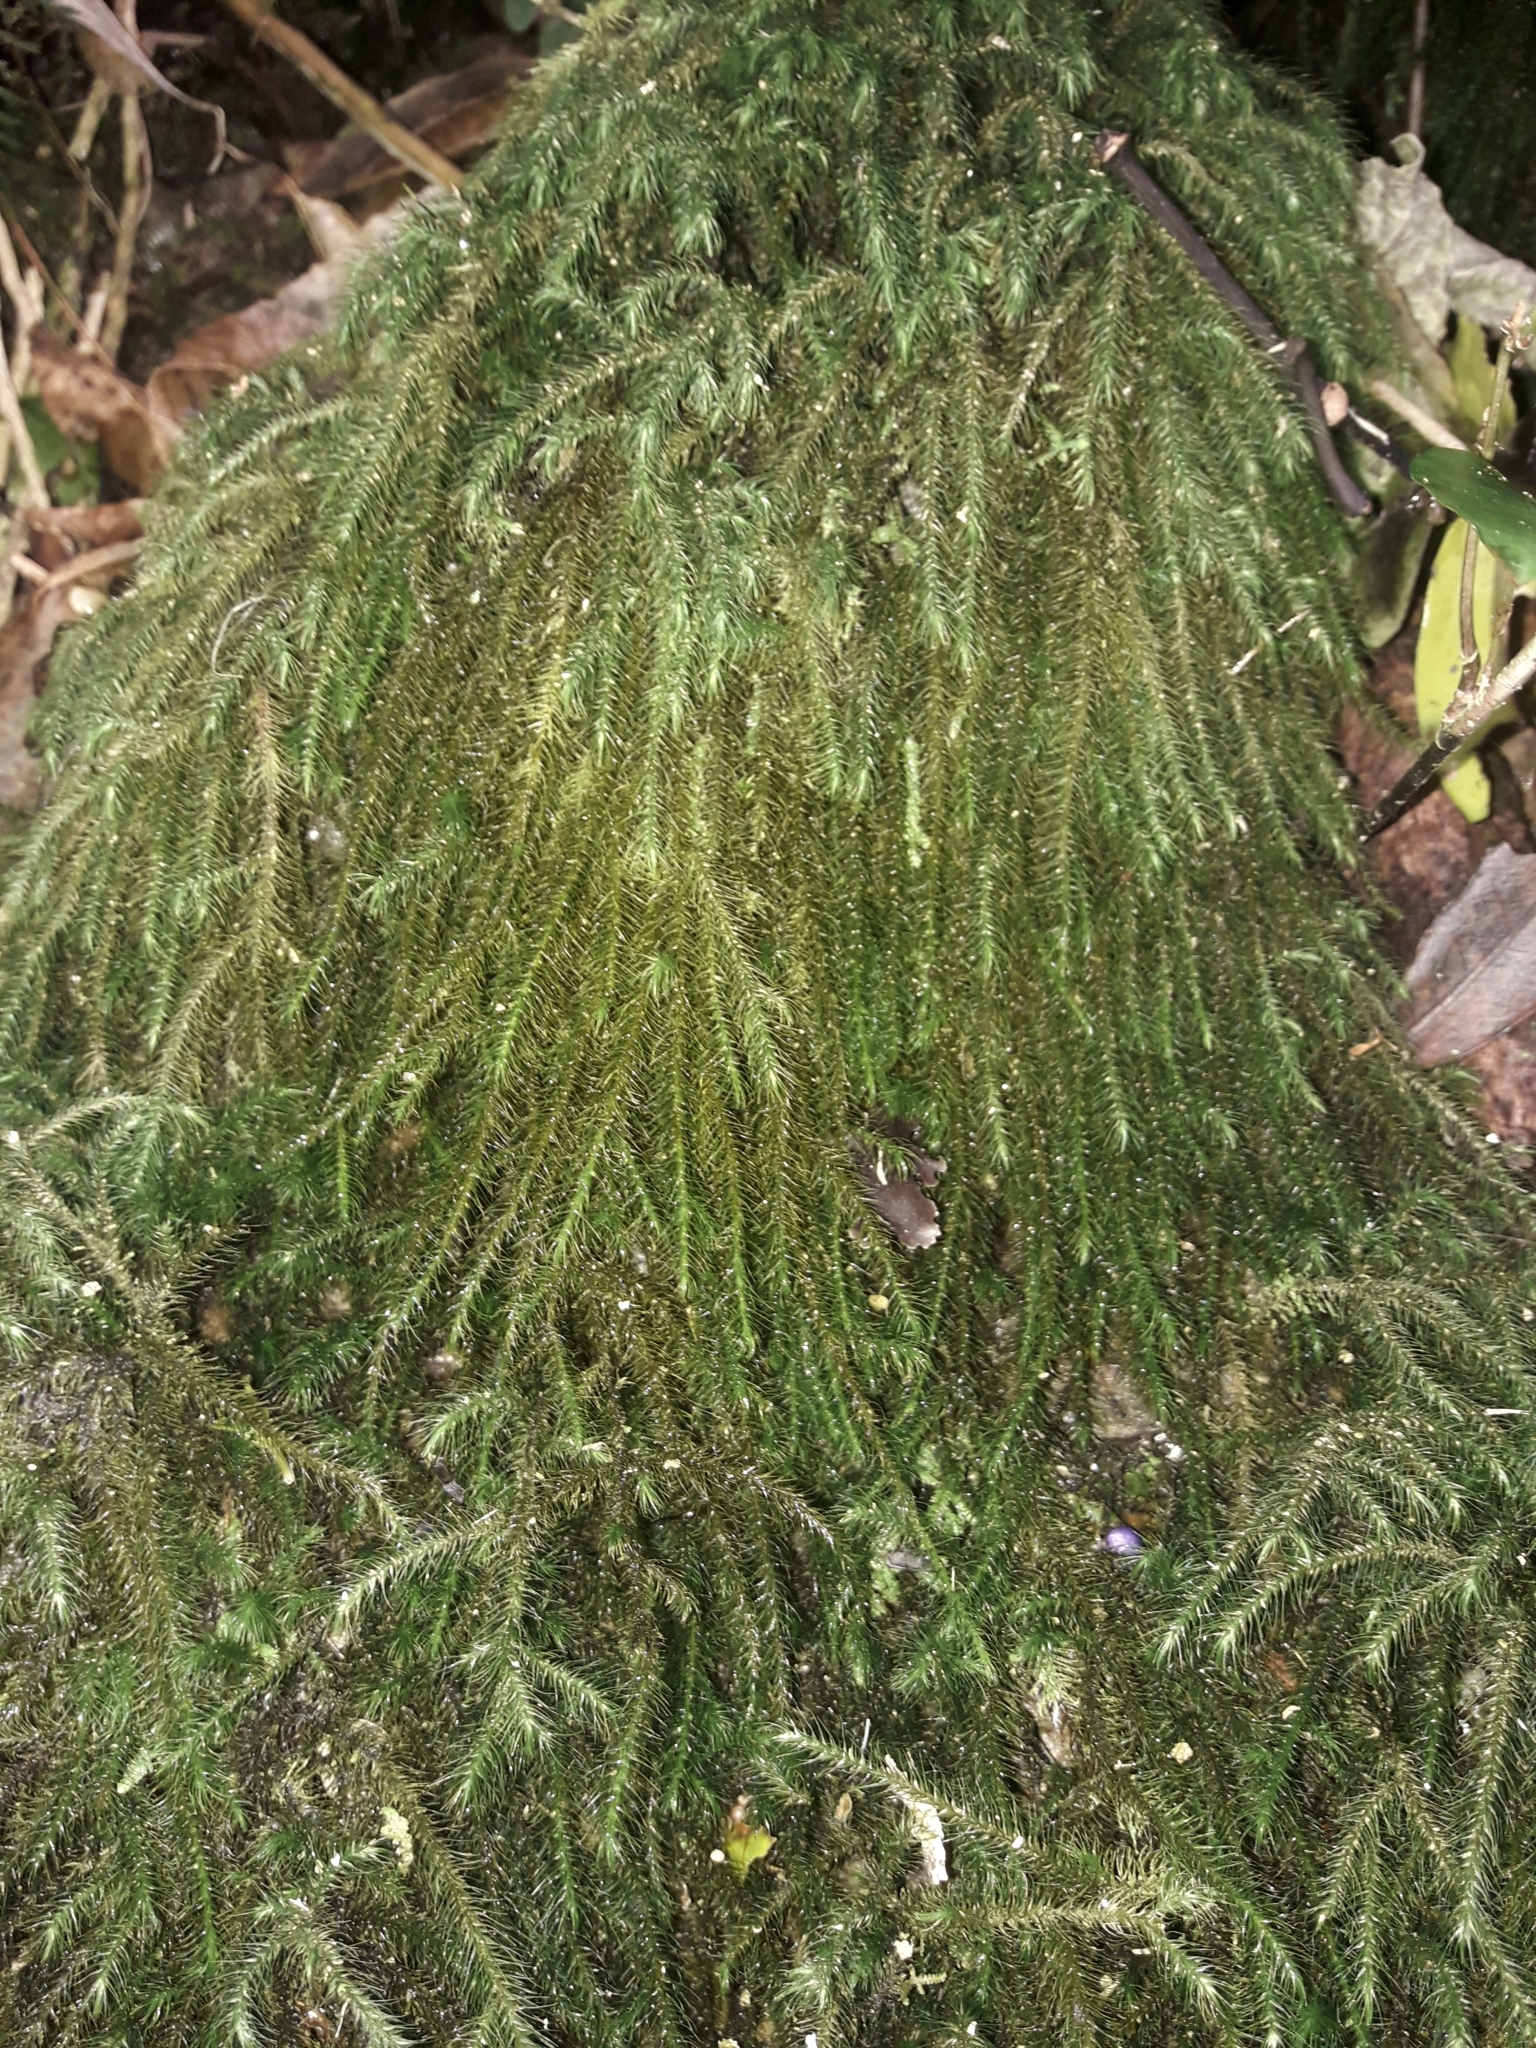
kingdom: Plantae
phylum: Bryophyta
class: Bryopsida
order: Hypnales
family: Neckeraceae
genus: Echinodiopsis
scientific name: Echinodiopsis hispida
